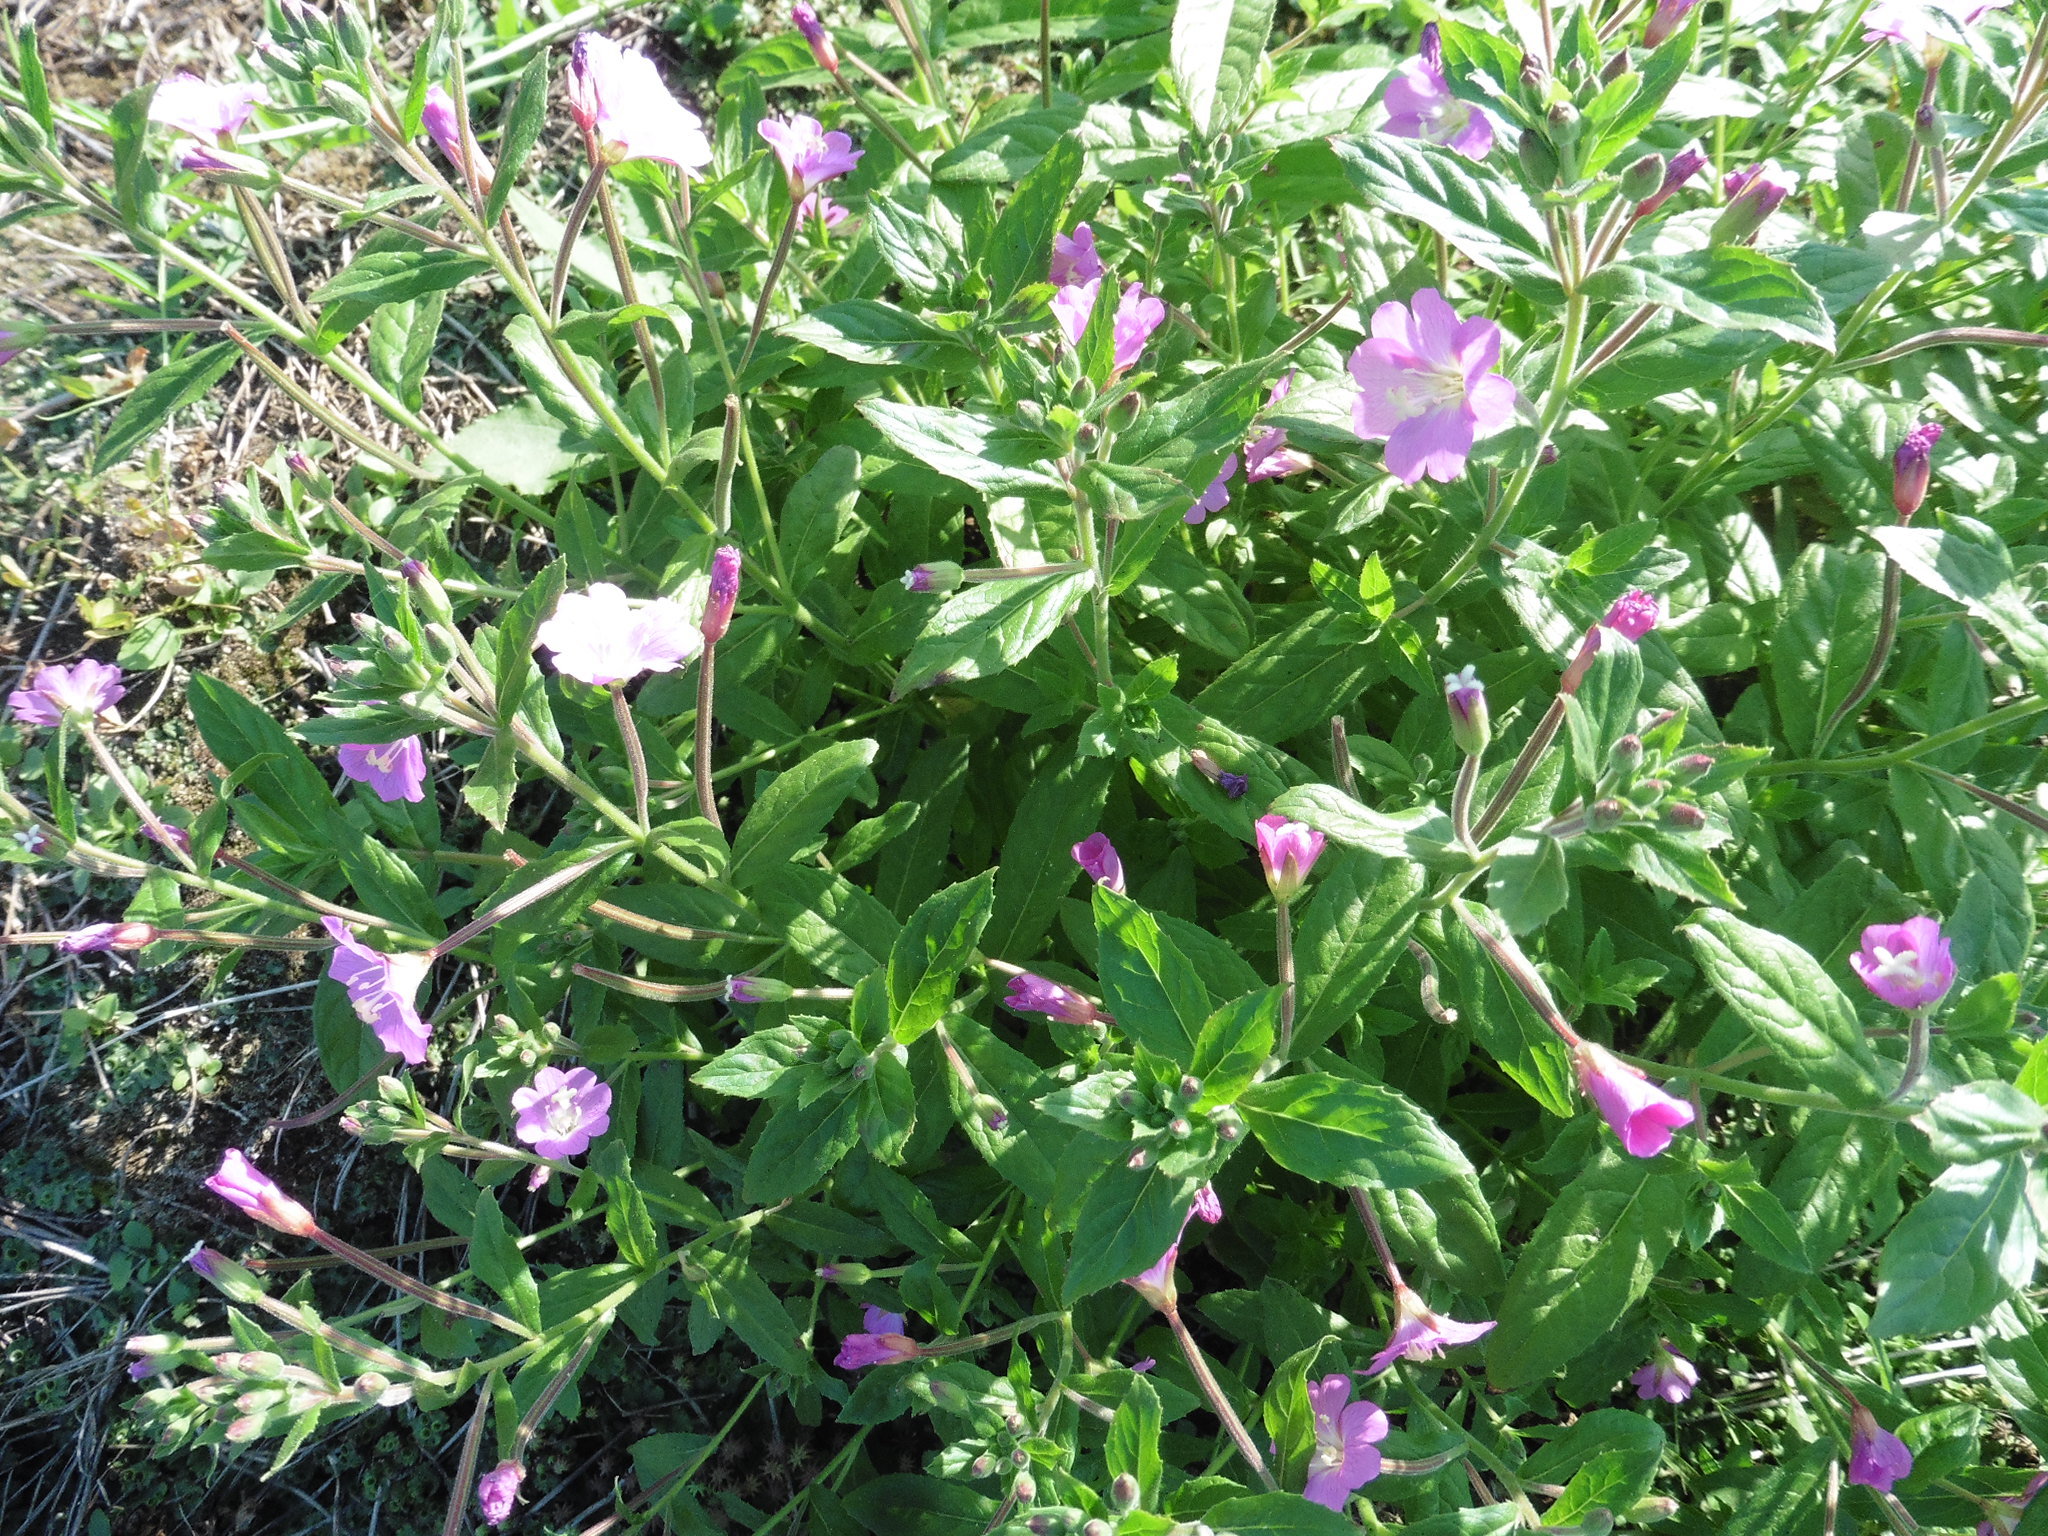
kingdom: Plantae
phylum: Tracheophyta
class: Magnoliopsida
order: Myrtales
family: Onagraceae
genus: Epilobium
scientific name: Epilobium hirsutum
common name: Great willowherb
